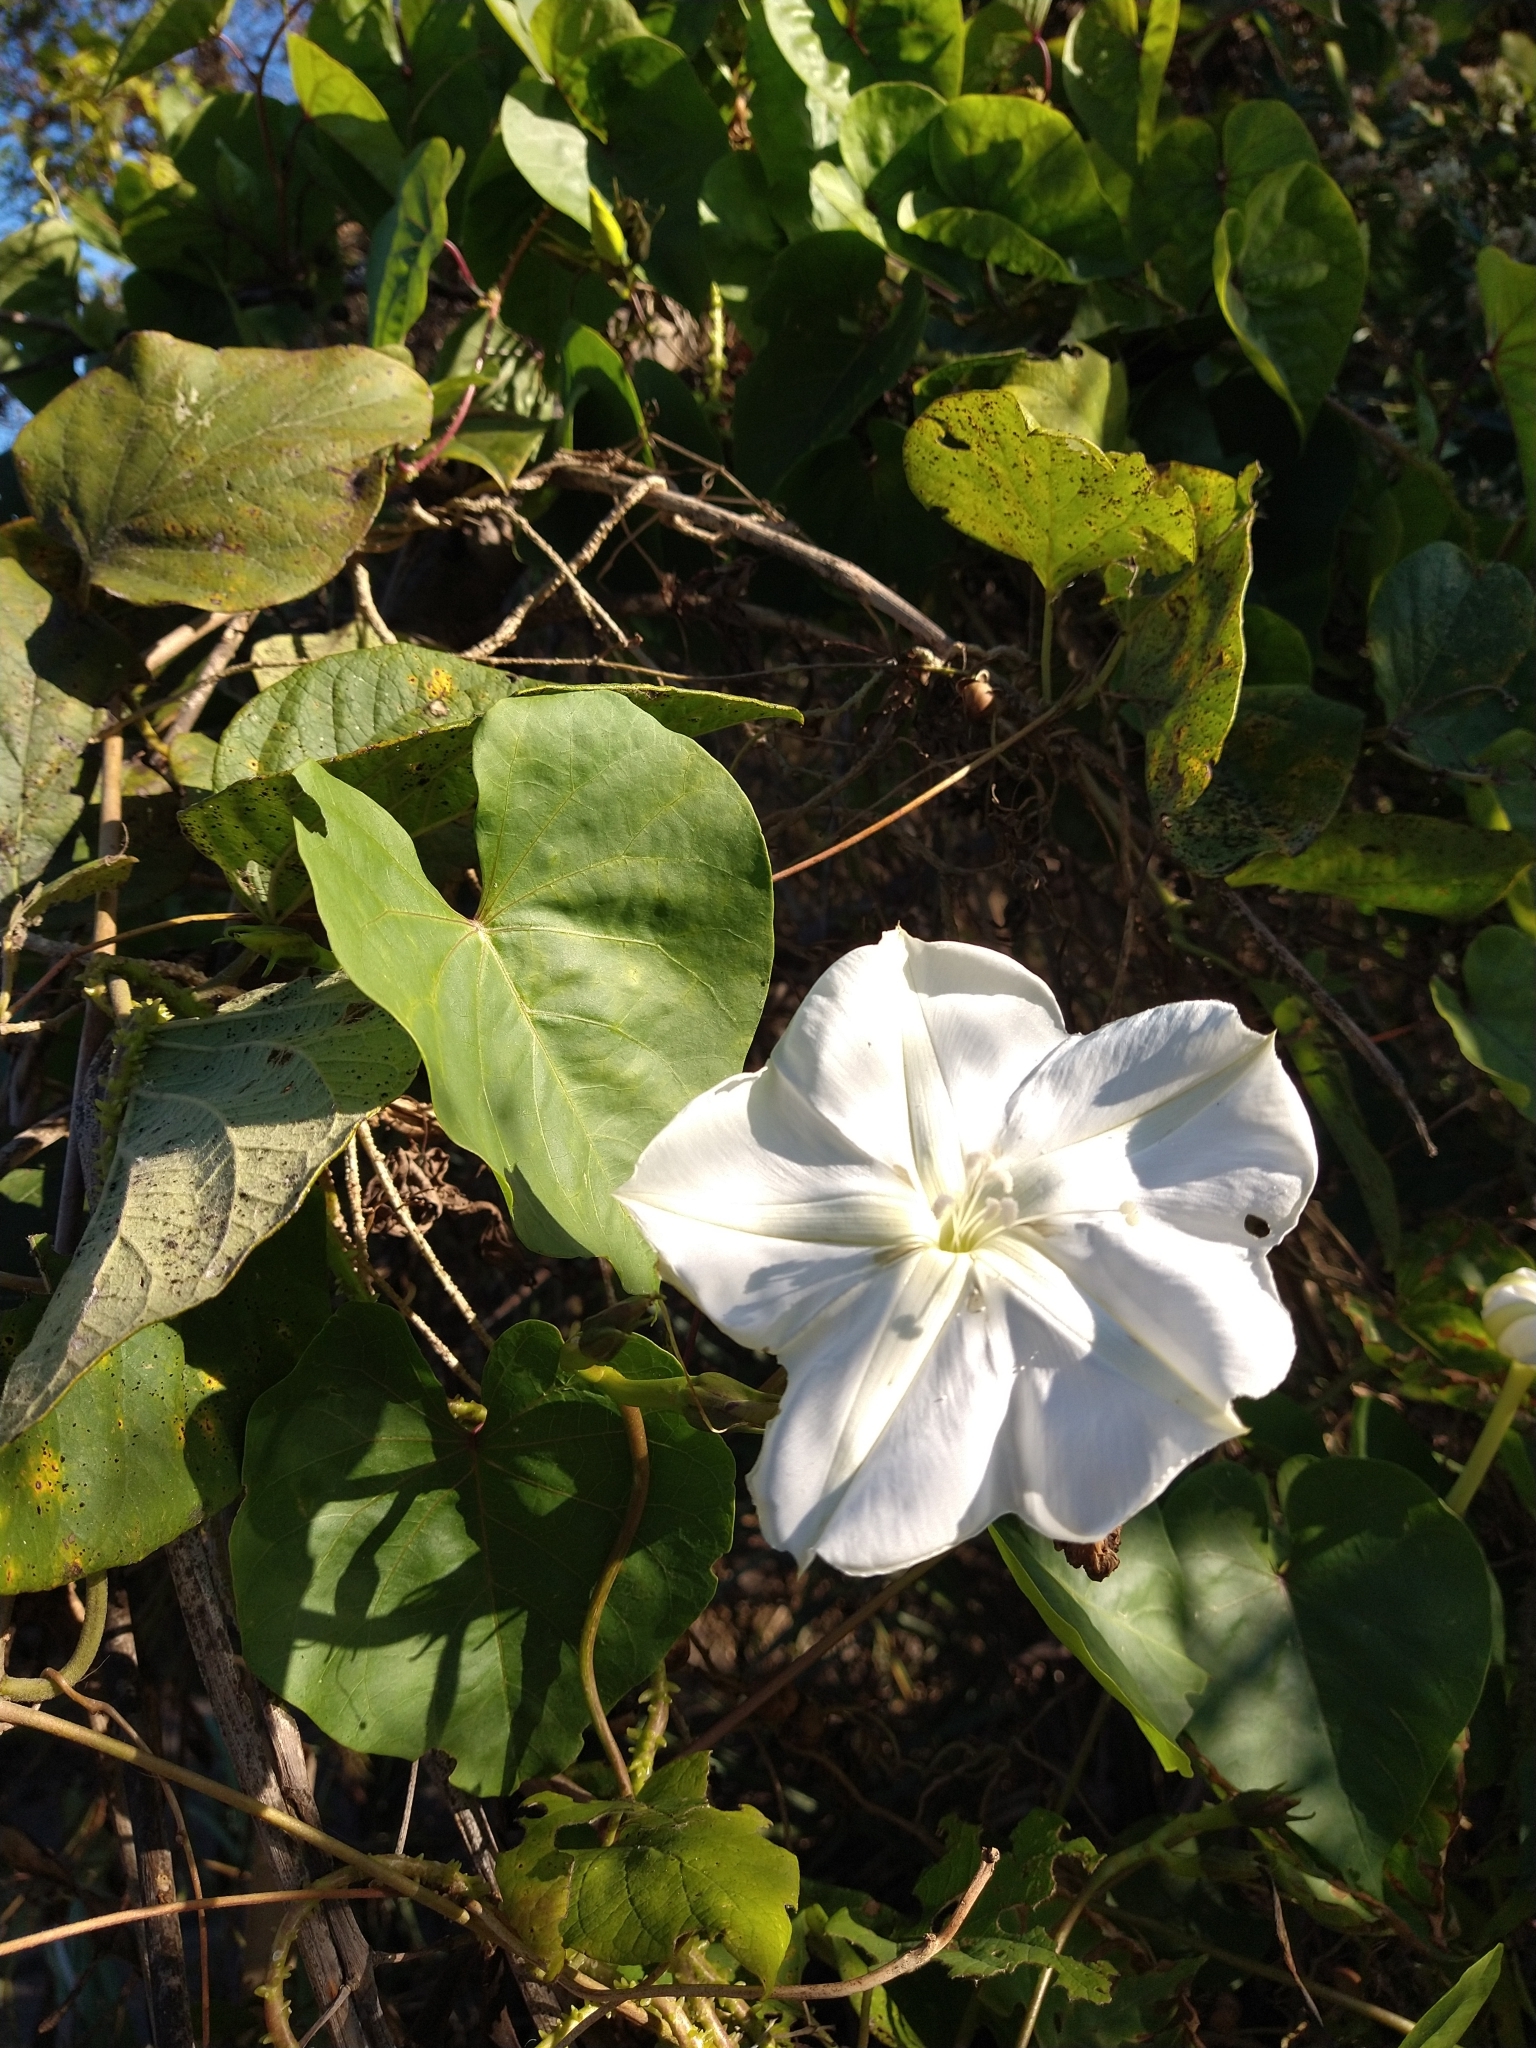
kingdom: Plantae
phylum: Tracheophyta
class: Magnoliopsida
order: Solanales
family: Convolvulaceae
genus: Ipomoea
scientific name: Ipomoea alba
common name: Moonflower
